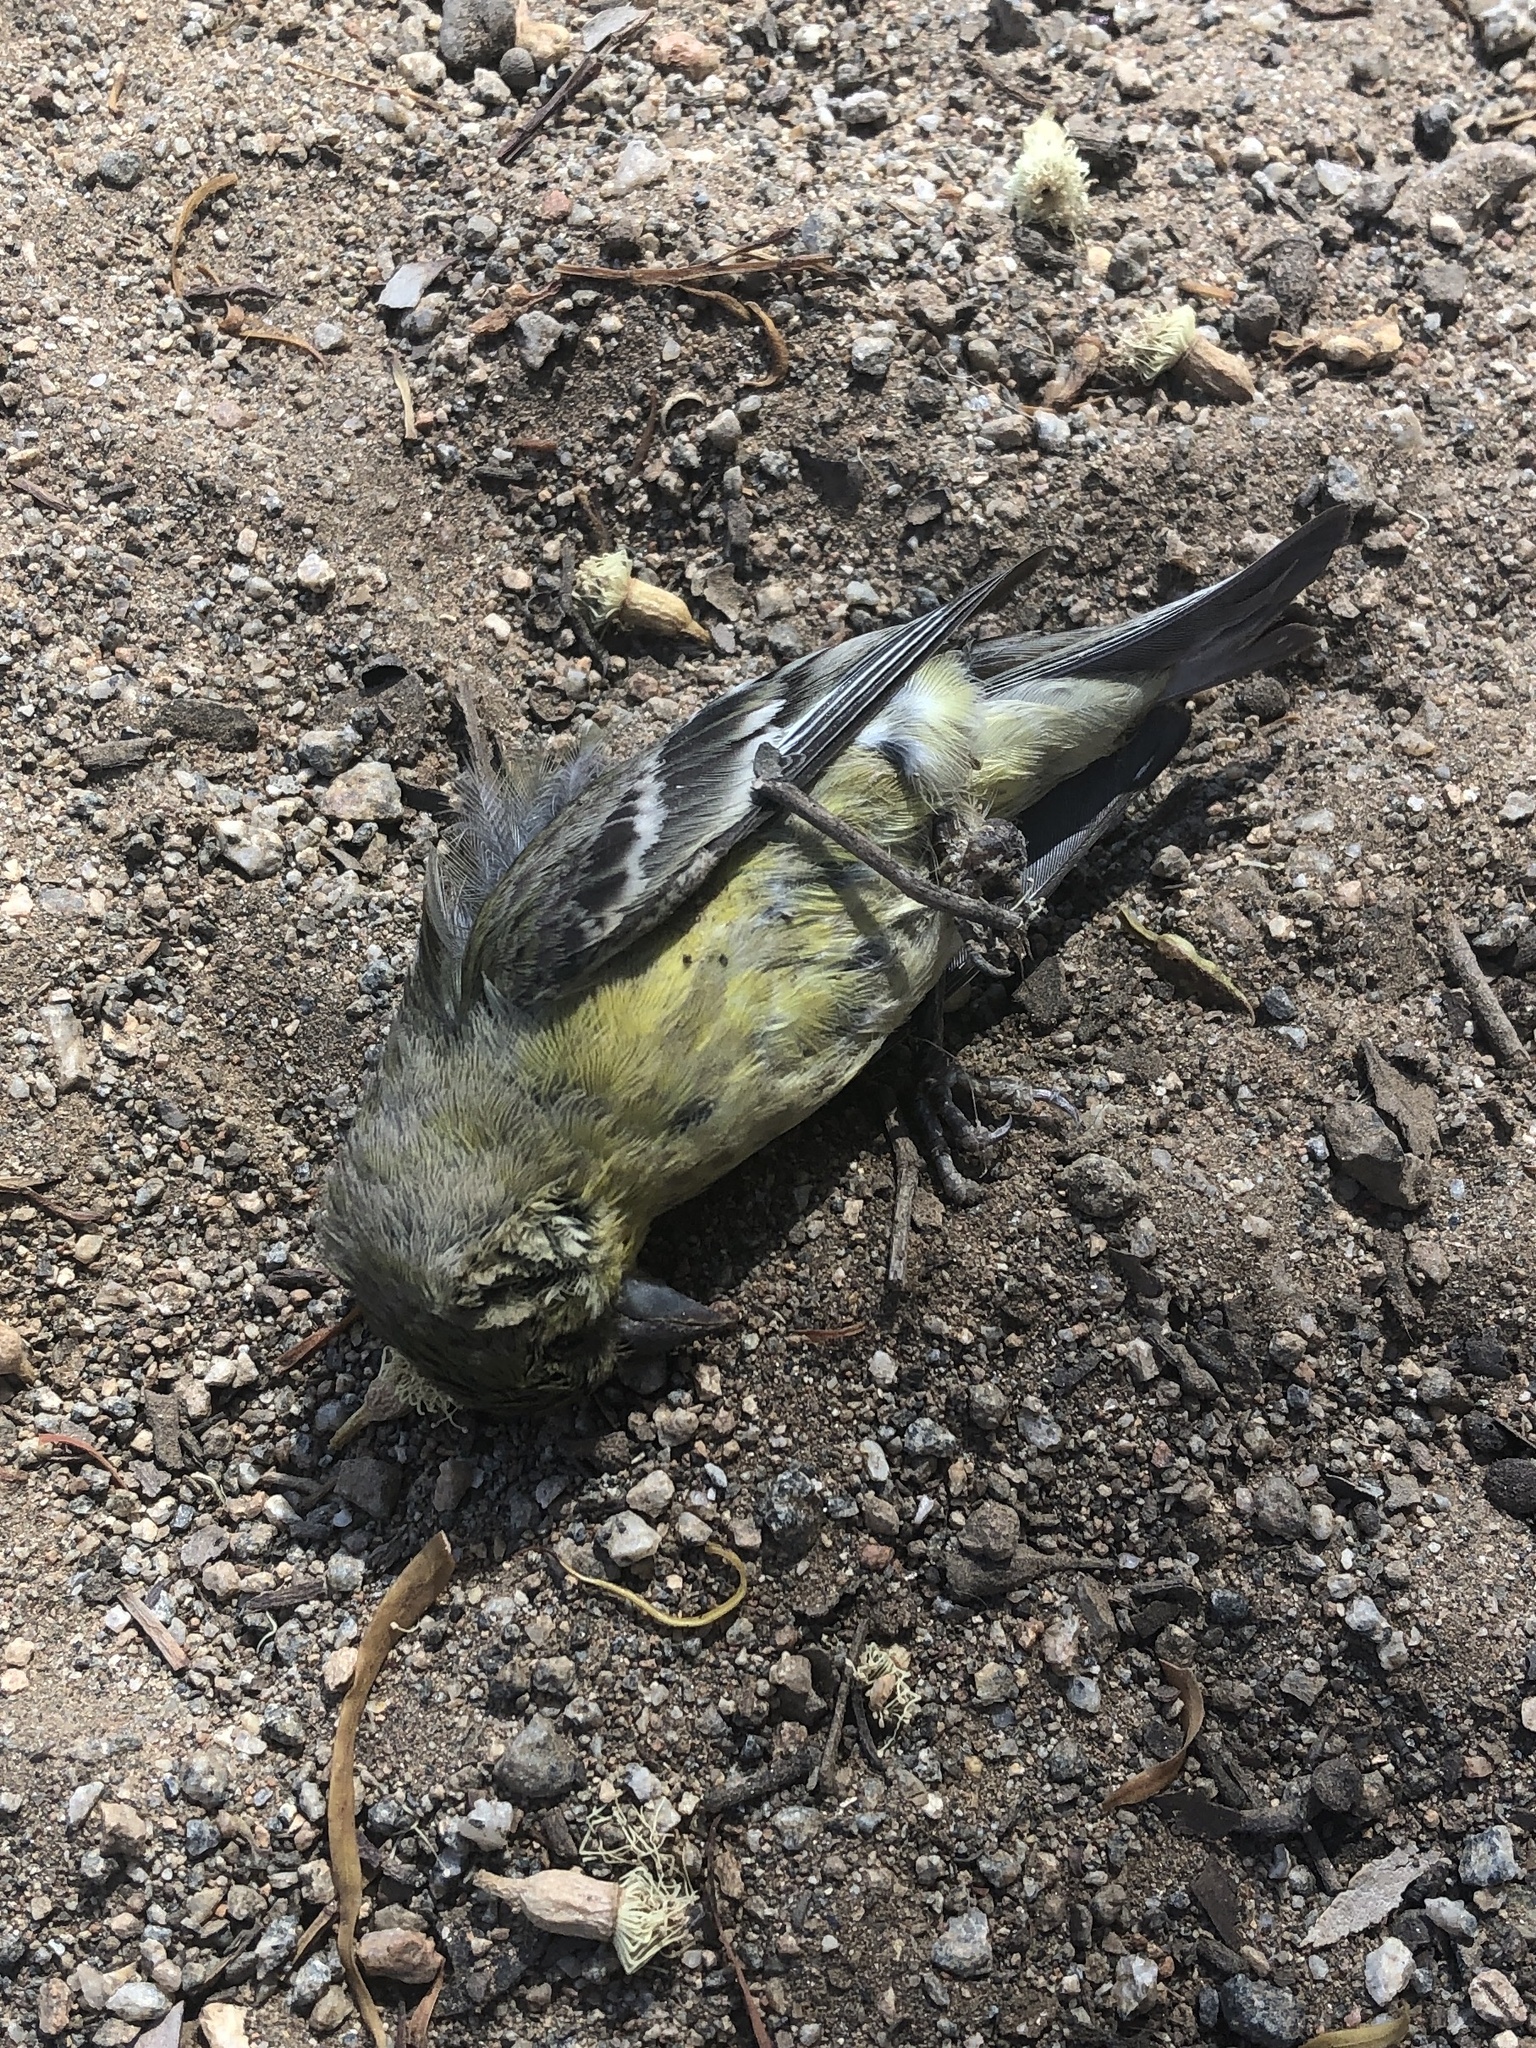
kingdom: Animalia
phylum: Chordata
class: Aves
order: Passeriformes
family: Fringillidae
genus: Spinus
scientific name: Spinus psaltria
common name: Lesser goldfinch
